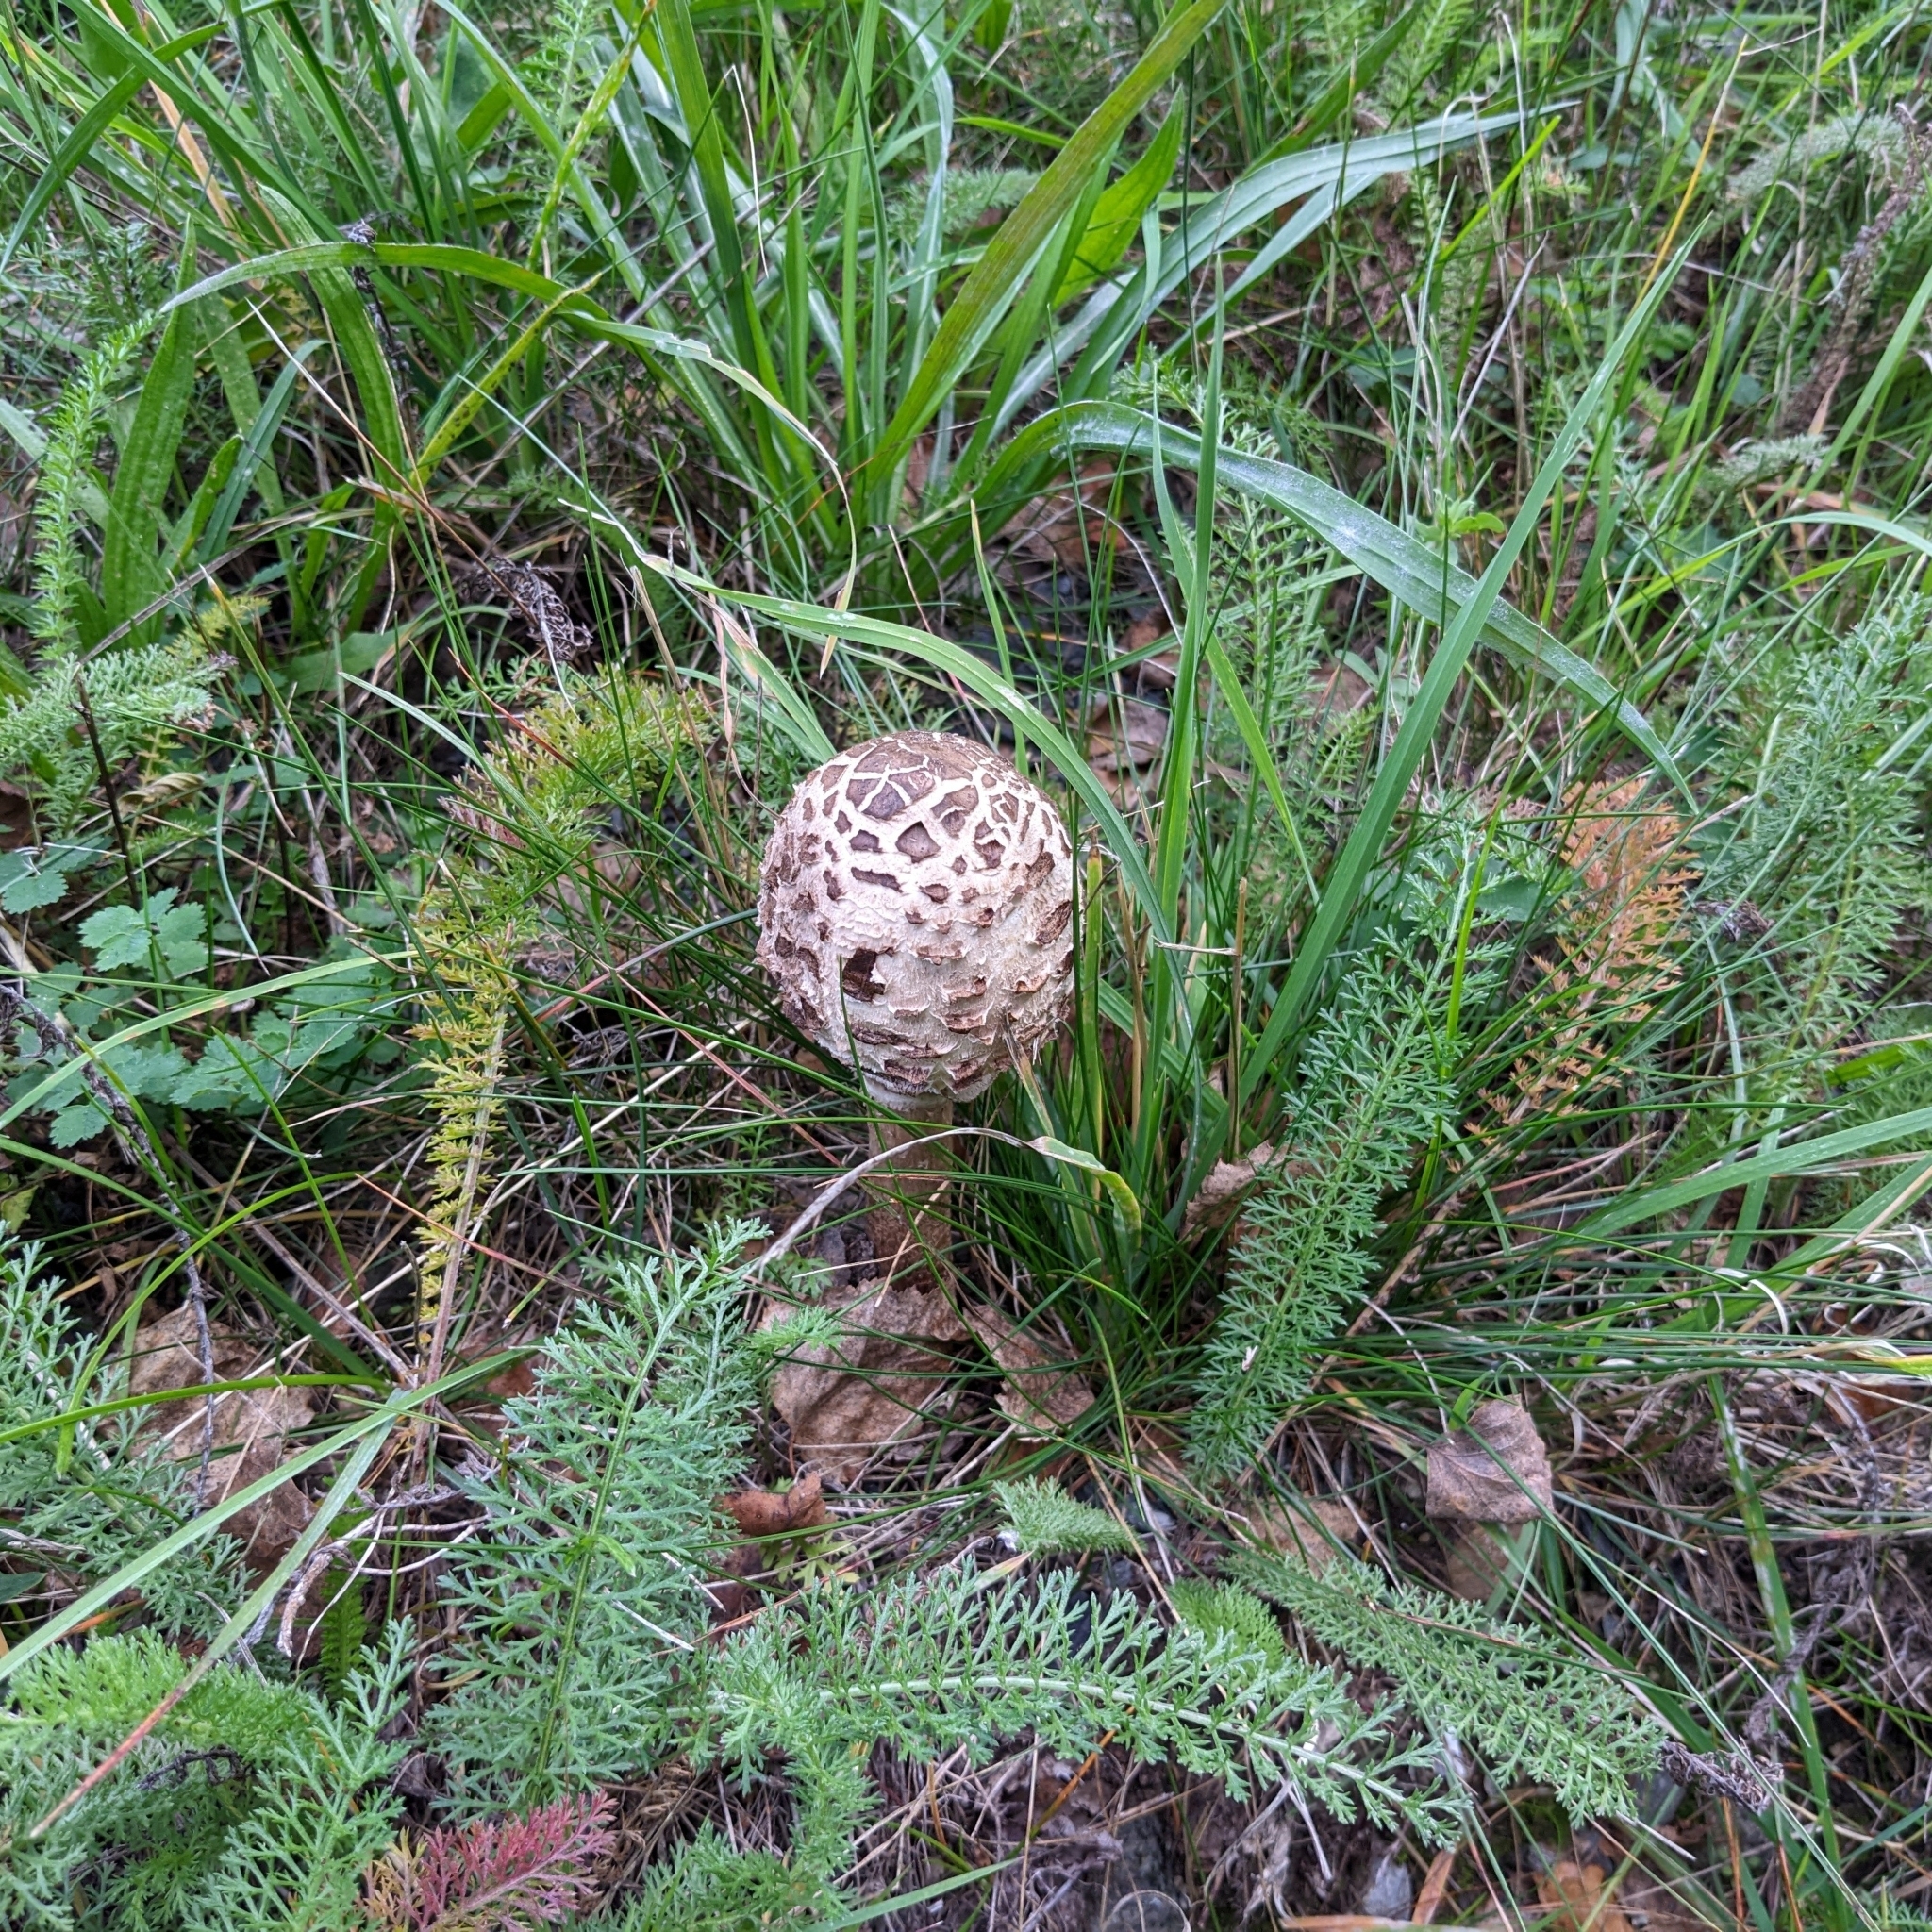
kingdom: Fungi
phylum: Basidiomycota
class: Agaricomycetes
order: Agaricales
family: Agaricaceae
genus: Macrolepiota
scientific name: Macrolepiota procera
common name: Parasol
